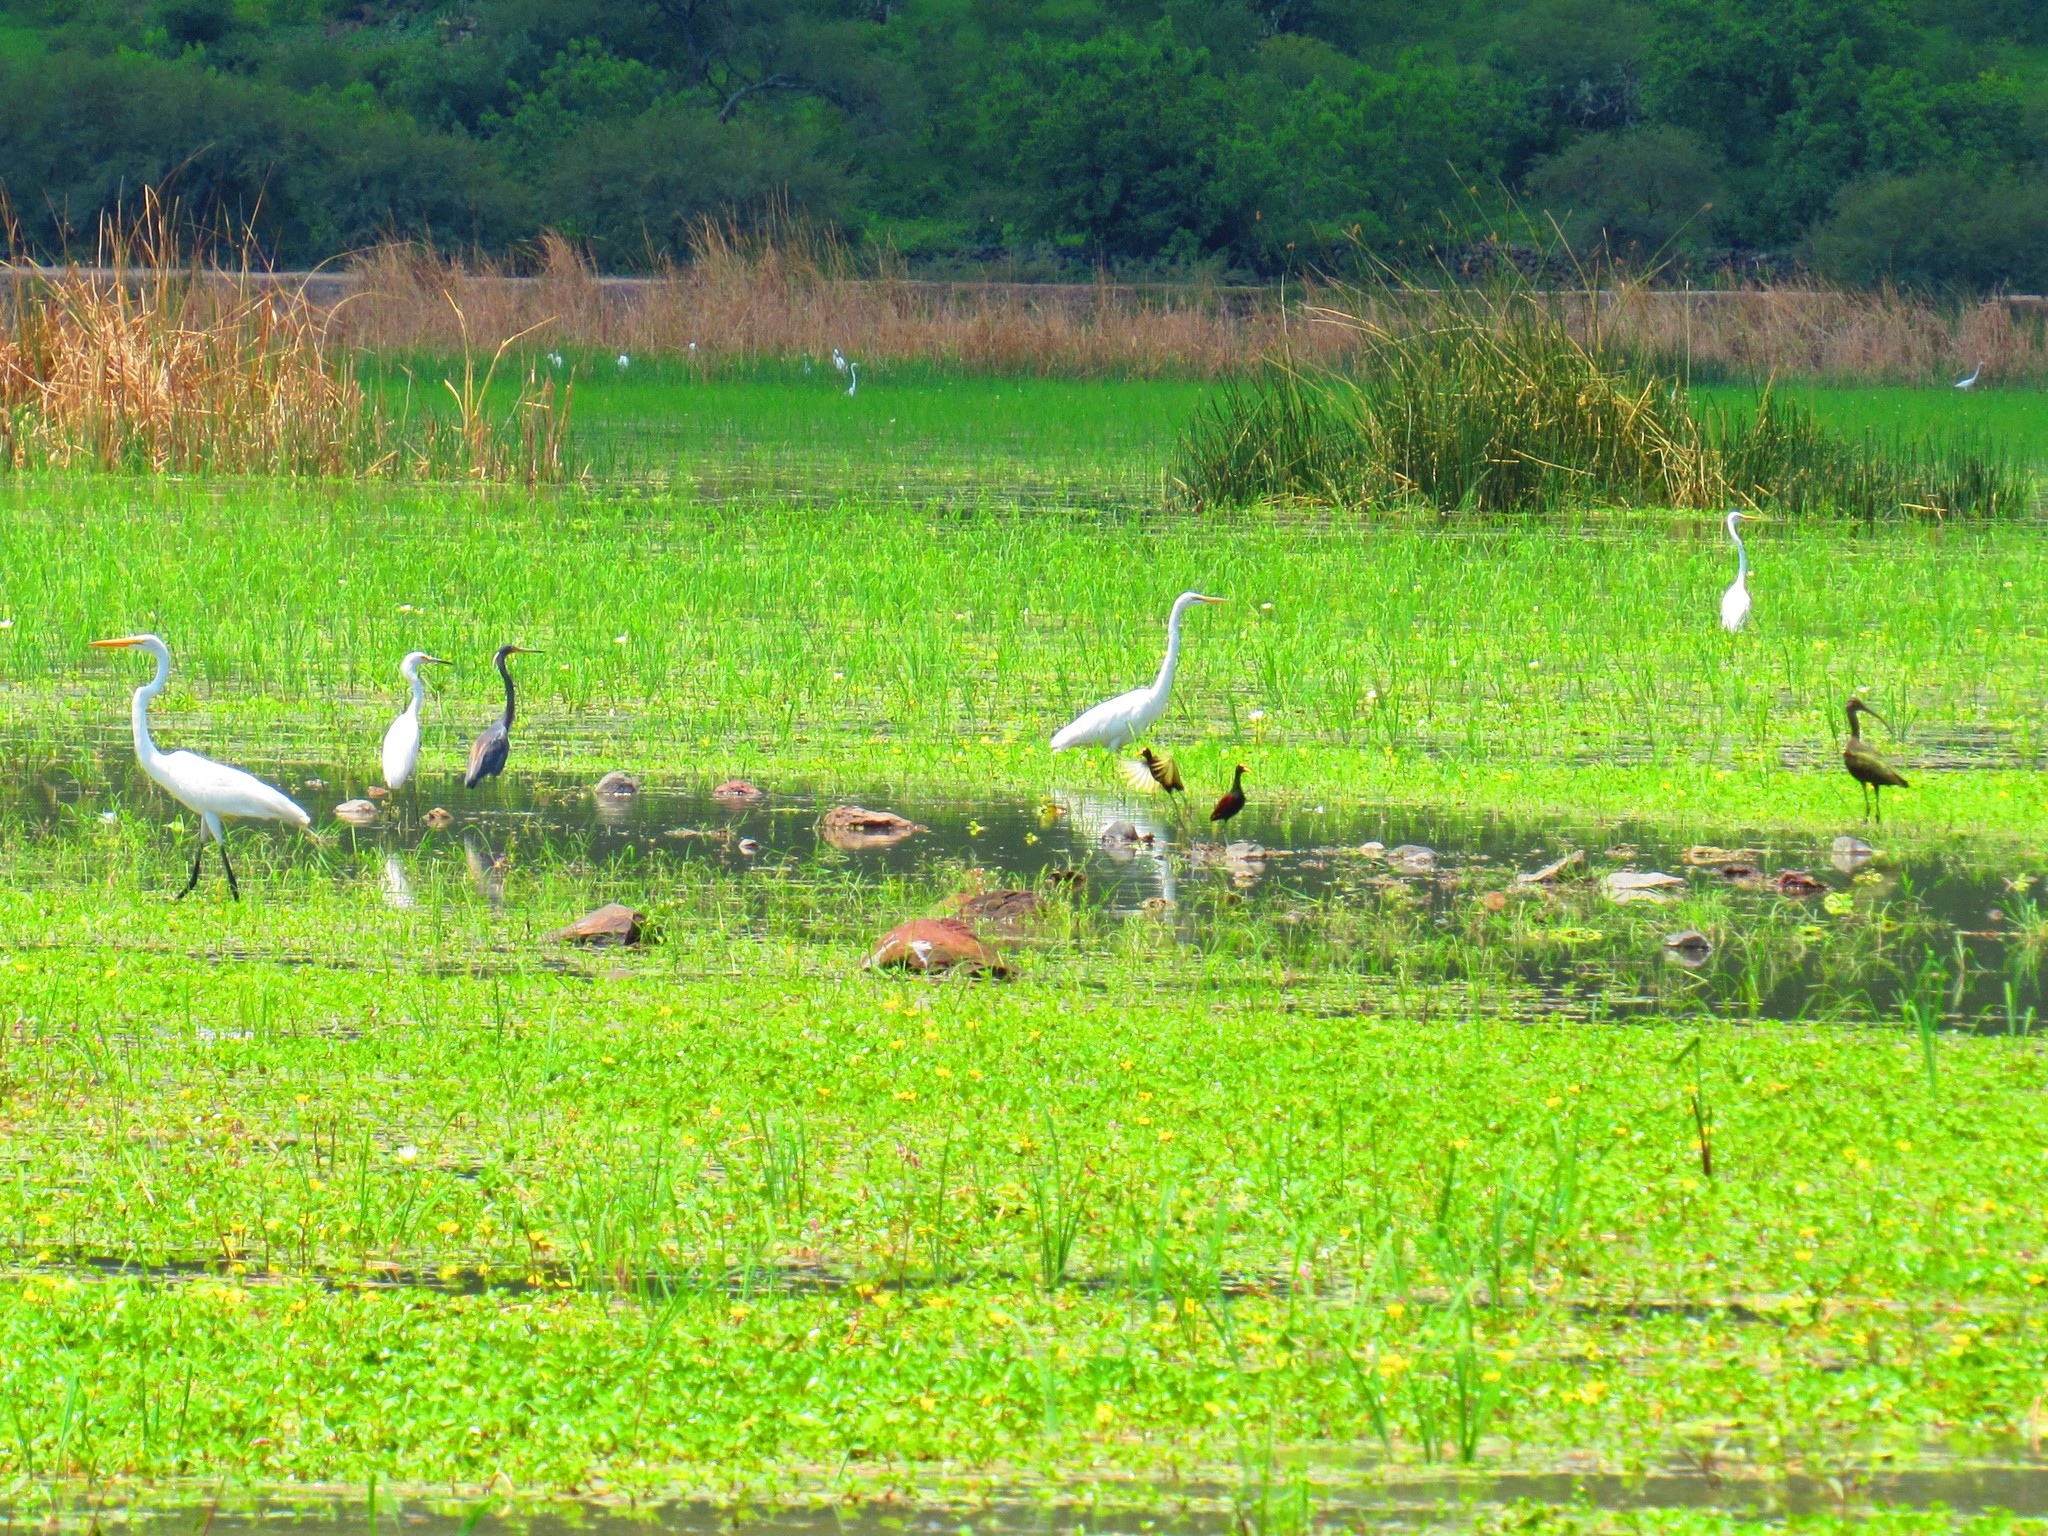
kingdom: Animalia
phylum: Chordata
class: Aves
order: Pelecaniformes
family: Ardeidae
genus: Egretta
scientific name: Egretta tricolor
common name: Tricolored heron
